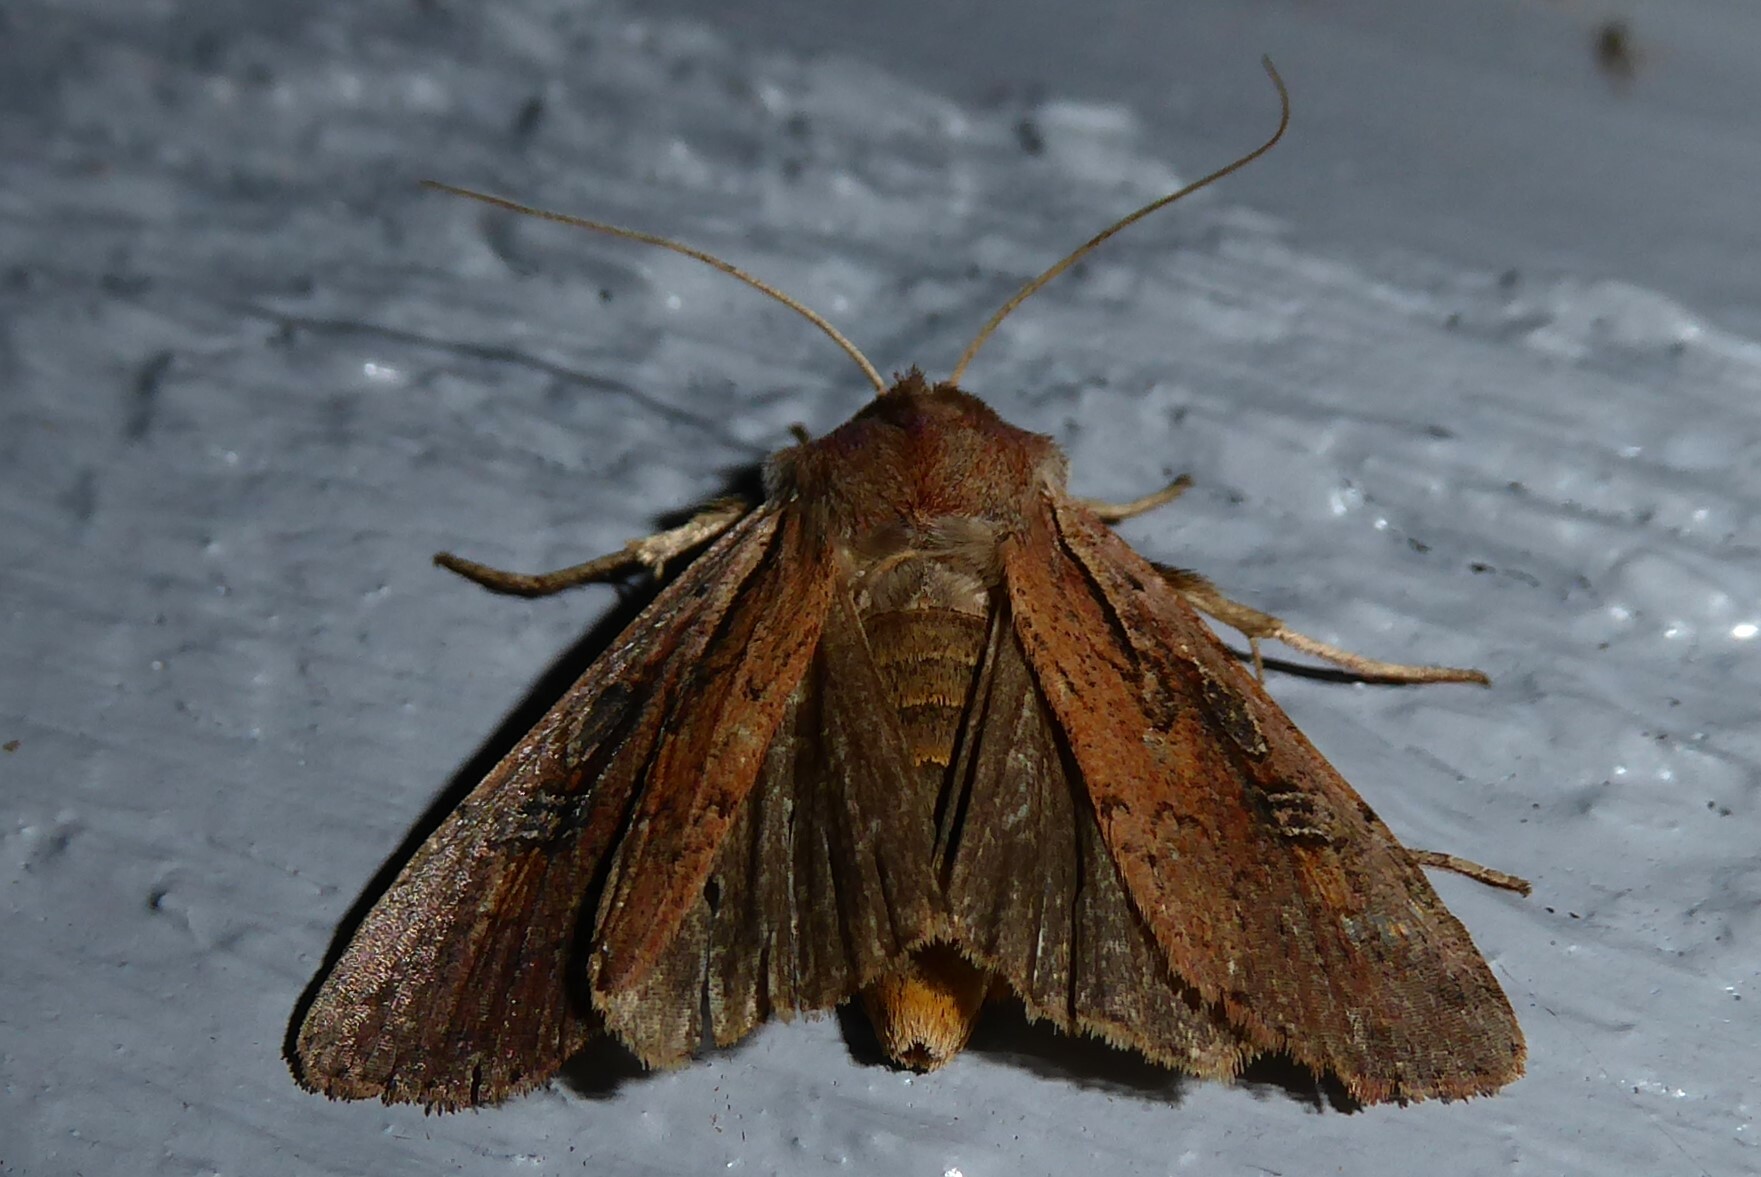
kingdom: Animalia
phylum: Arthropoda
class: Insecta
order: Lepidoptera
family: Noctuidae
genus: Ichneutica
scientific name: Ichneutica atristriga
